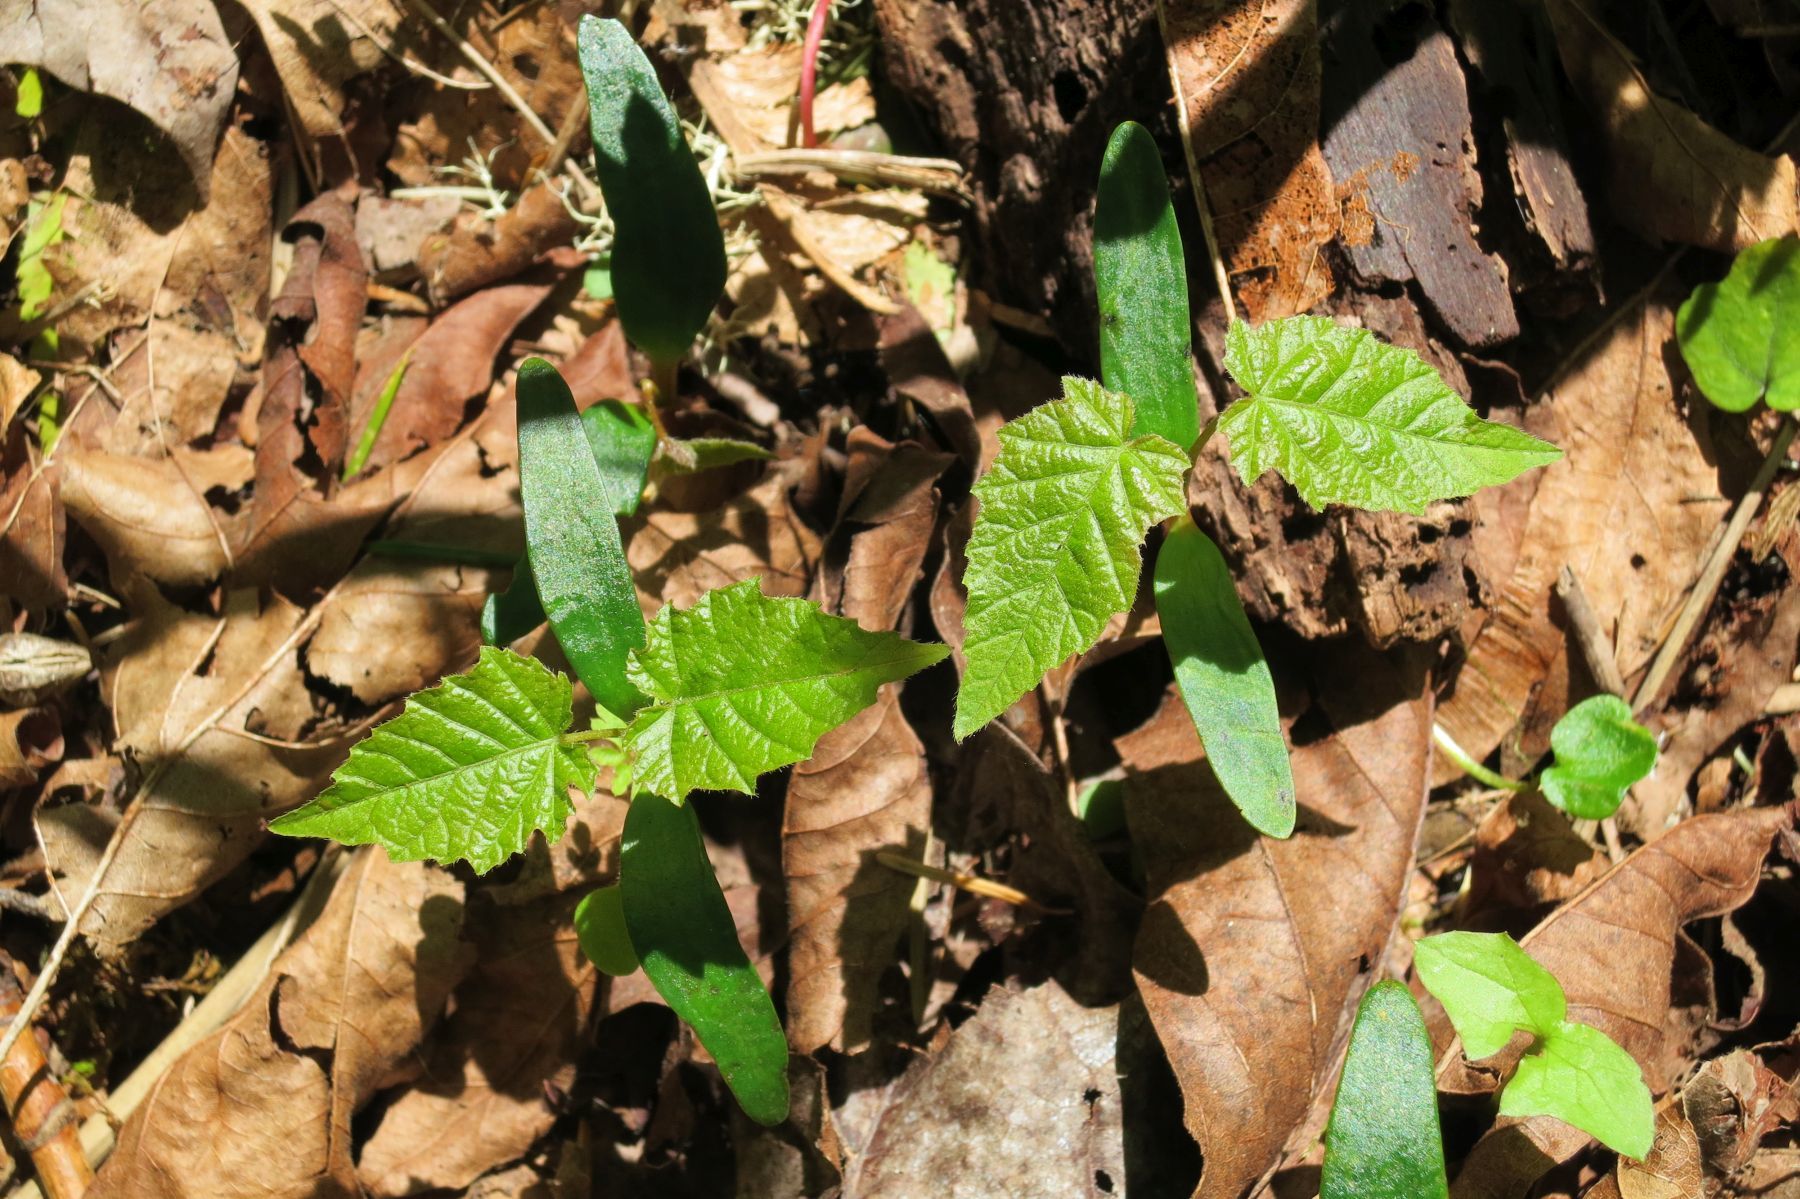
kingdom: Plantae
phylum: Tracheophyta
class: Magnoliopsida
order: Sapindales
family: Sapindaceae
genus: Acer
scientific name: Acer macrophyllum
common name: Oregon maple
